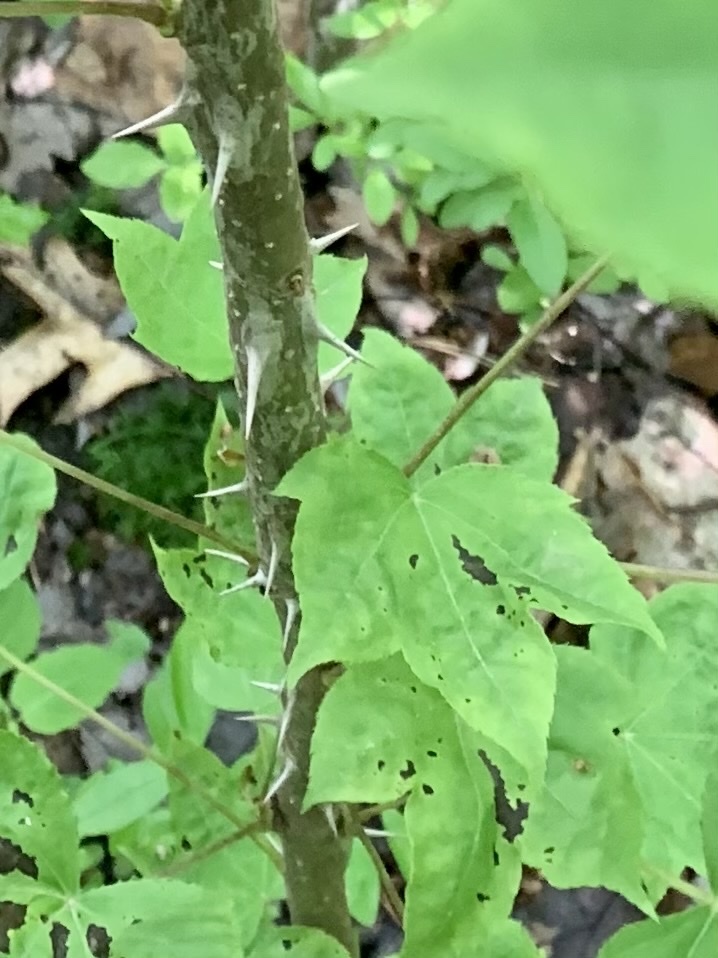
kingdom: Plantae
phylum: Tracheophyta
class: Magnoliopsida
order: Apiales
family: Araliaceae
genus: Kalopanax
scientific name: Kalopanax septemlobus
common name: Castor aralia
